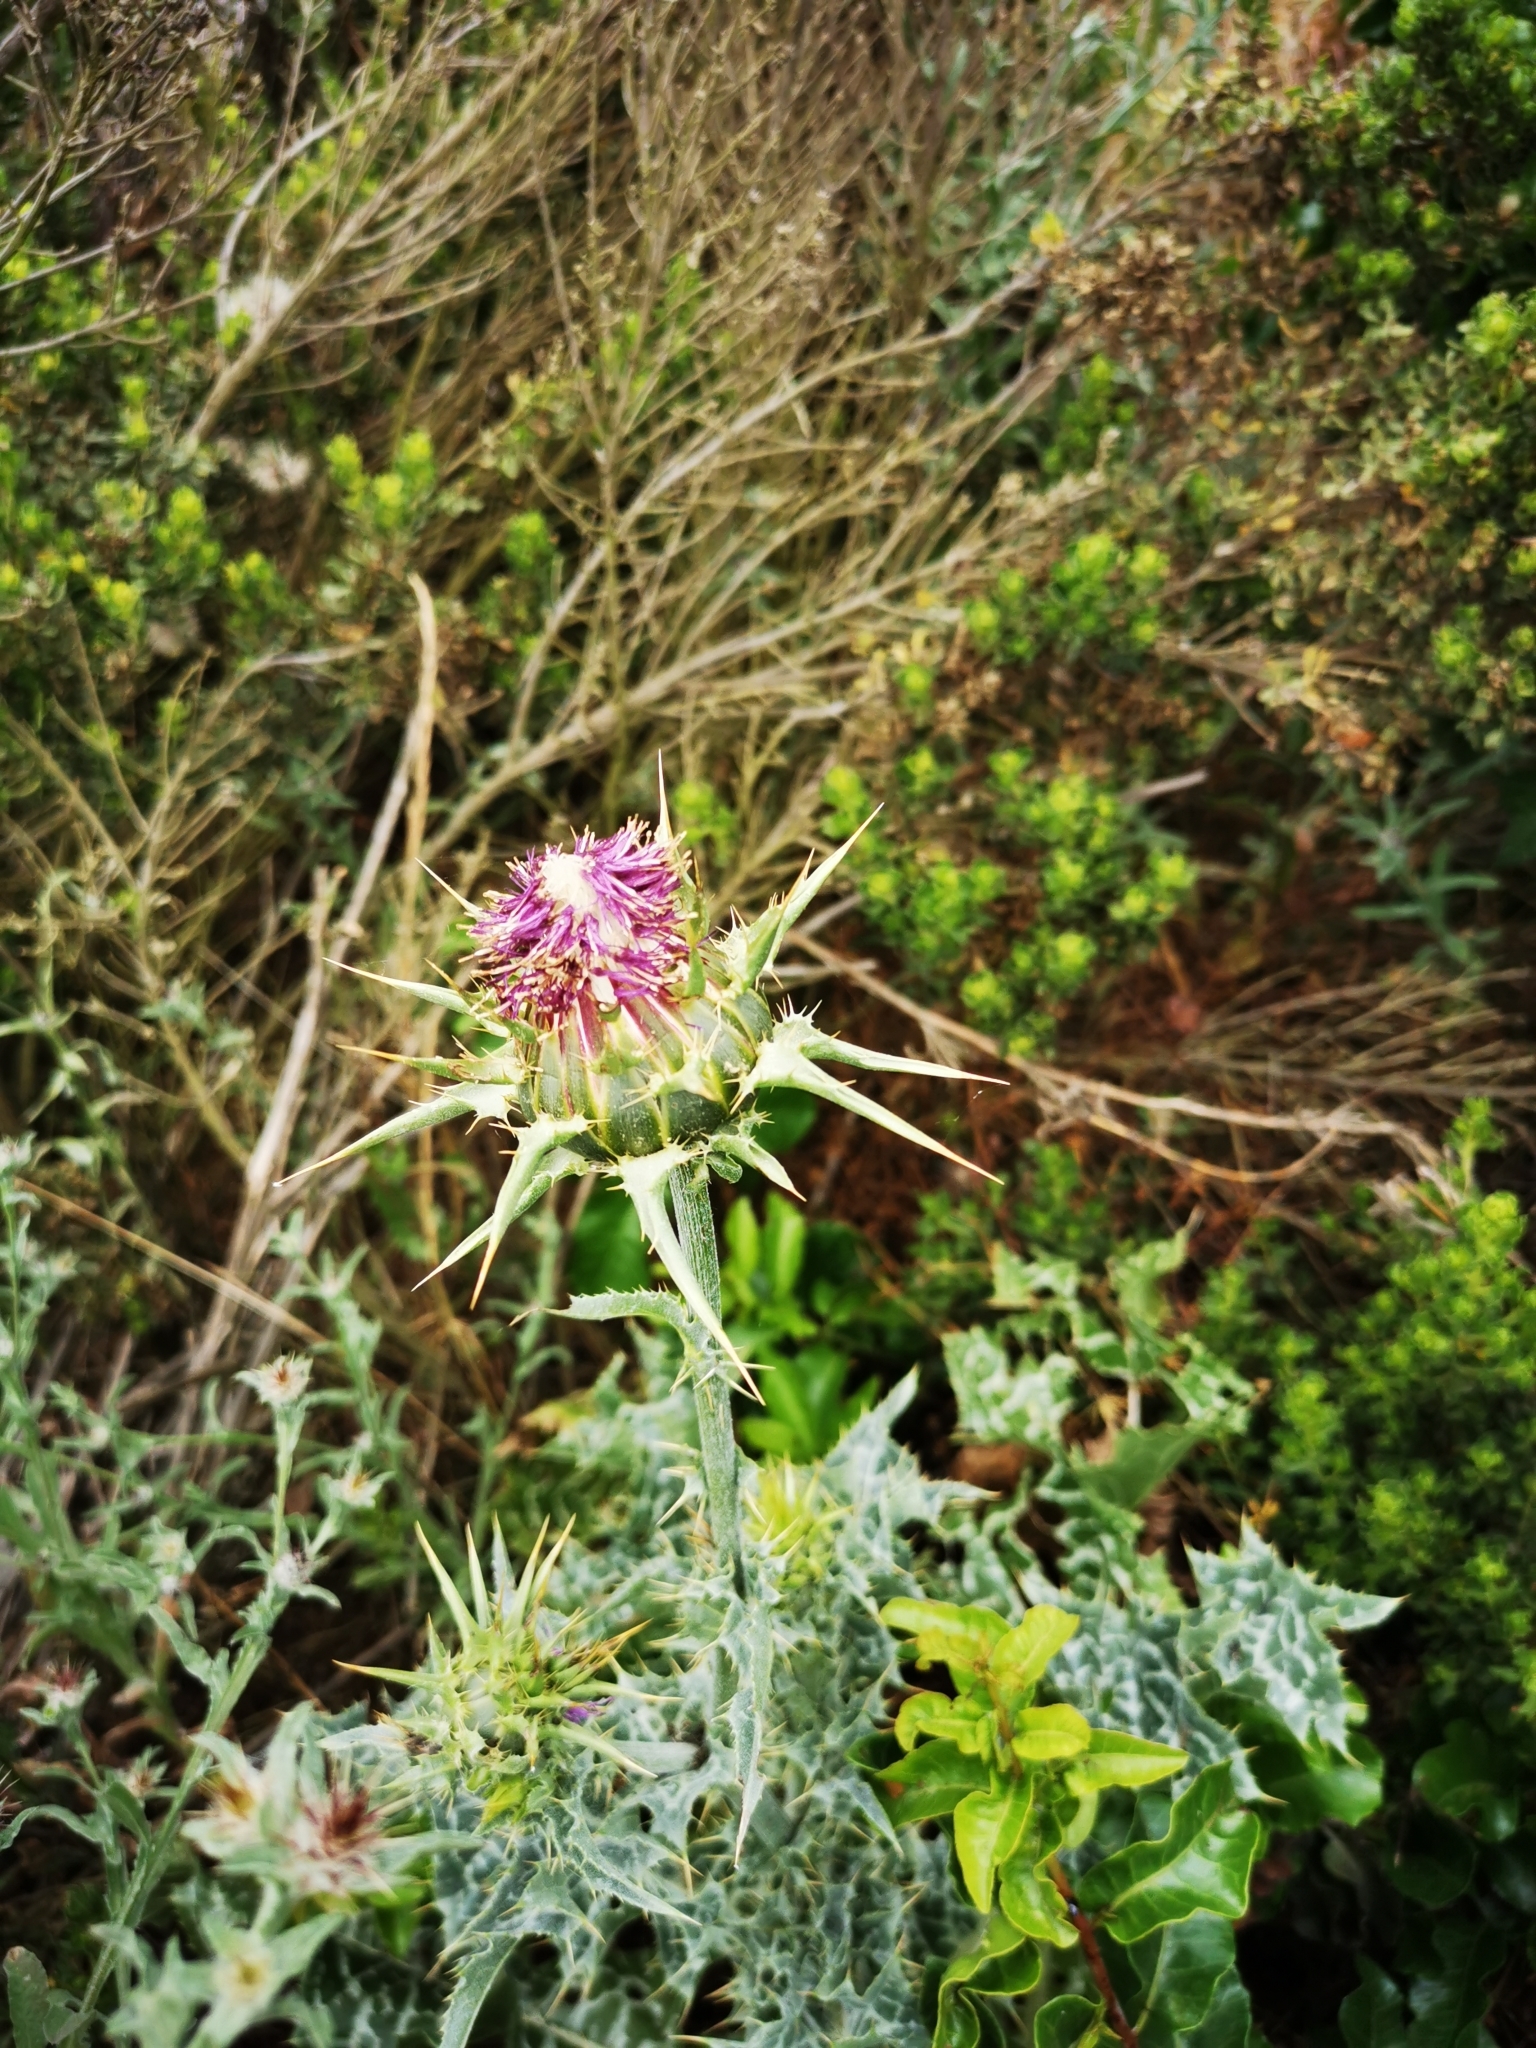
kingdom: Plantae
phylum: Tracheophyta
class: Magnoliopsida
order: Asterales
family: Asteraceae
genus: Silybum
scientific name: Silybum marianum
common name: Milk thistle
